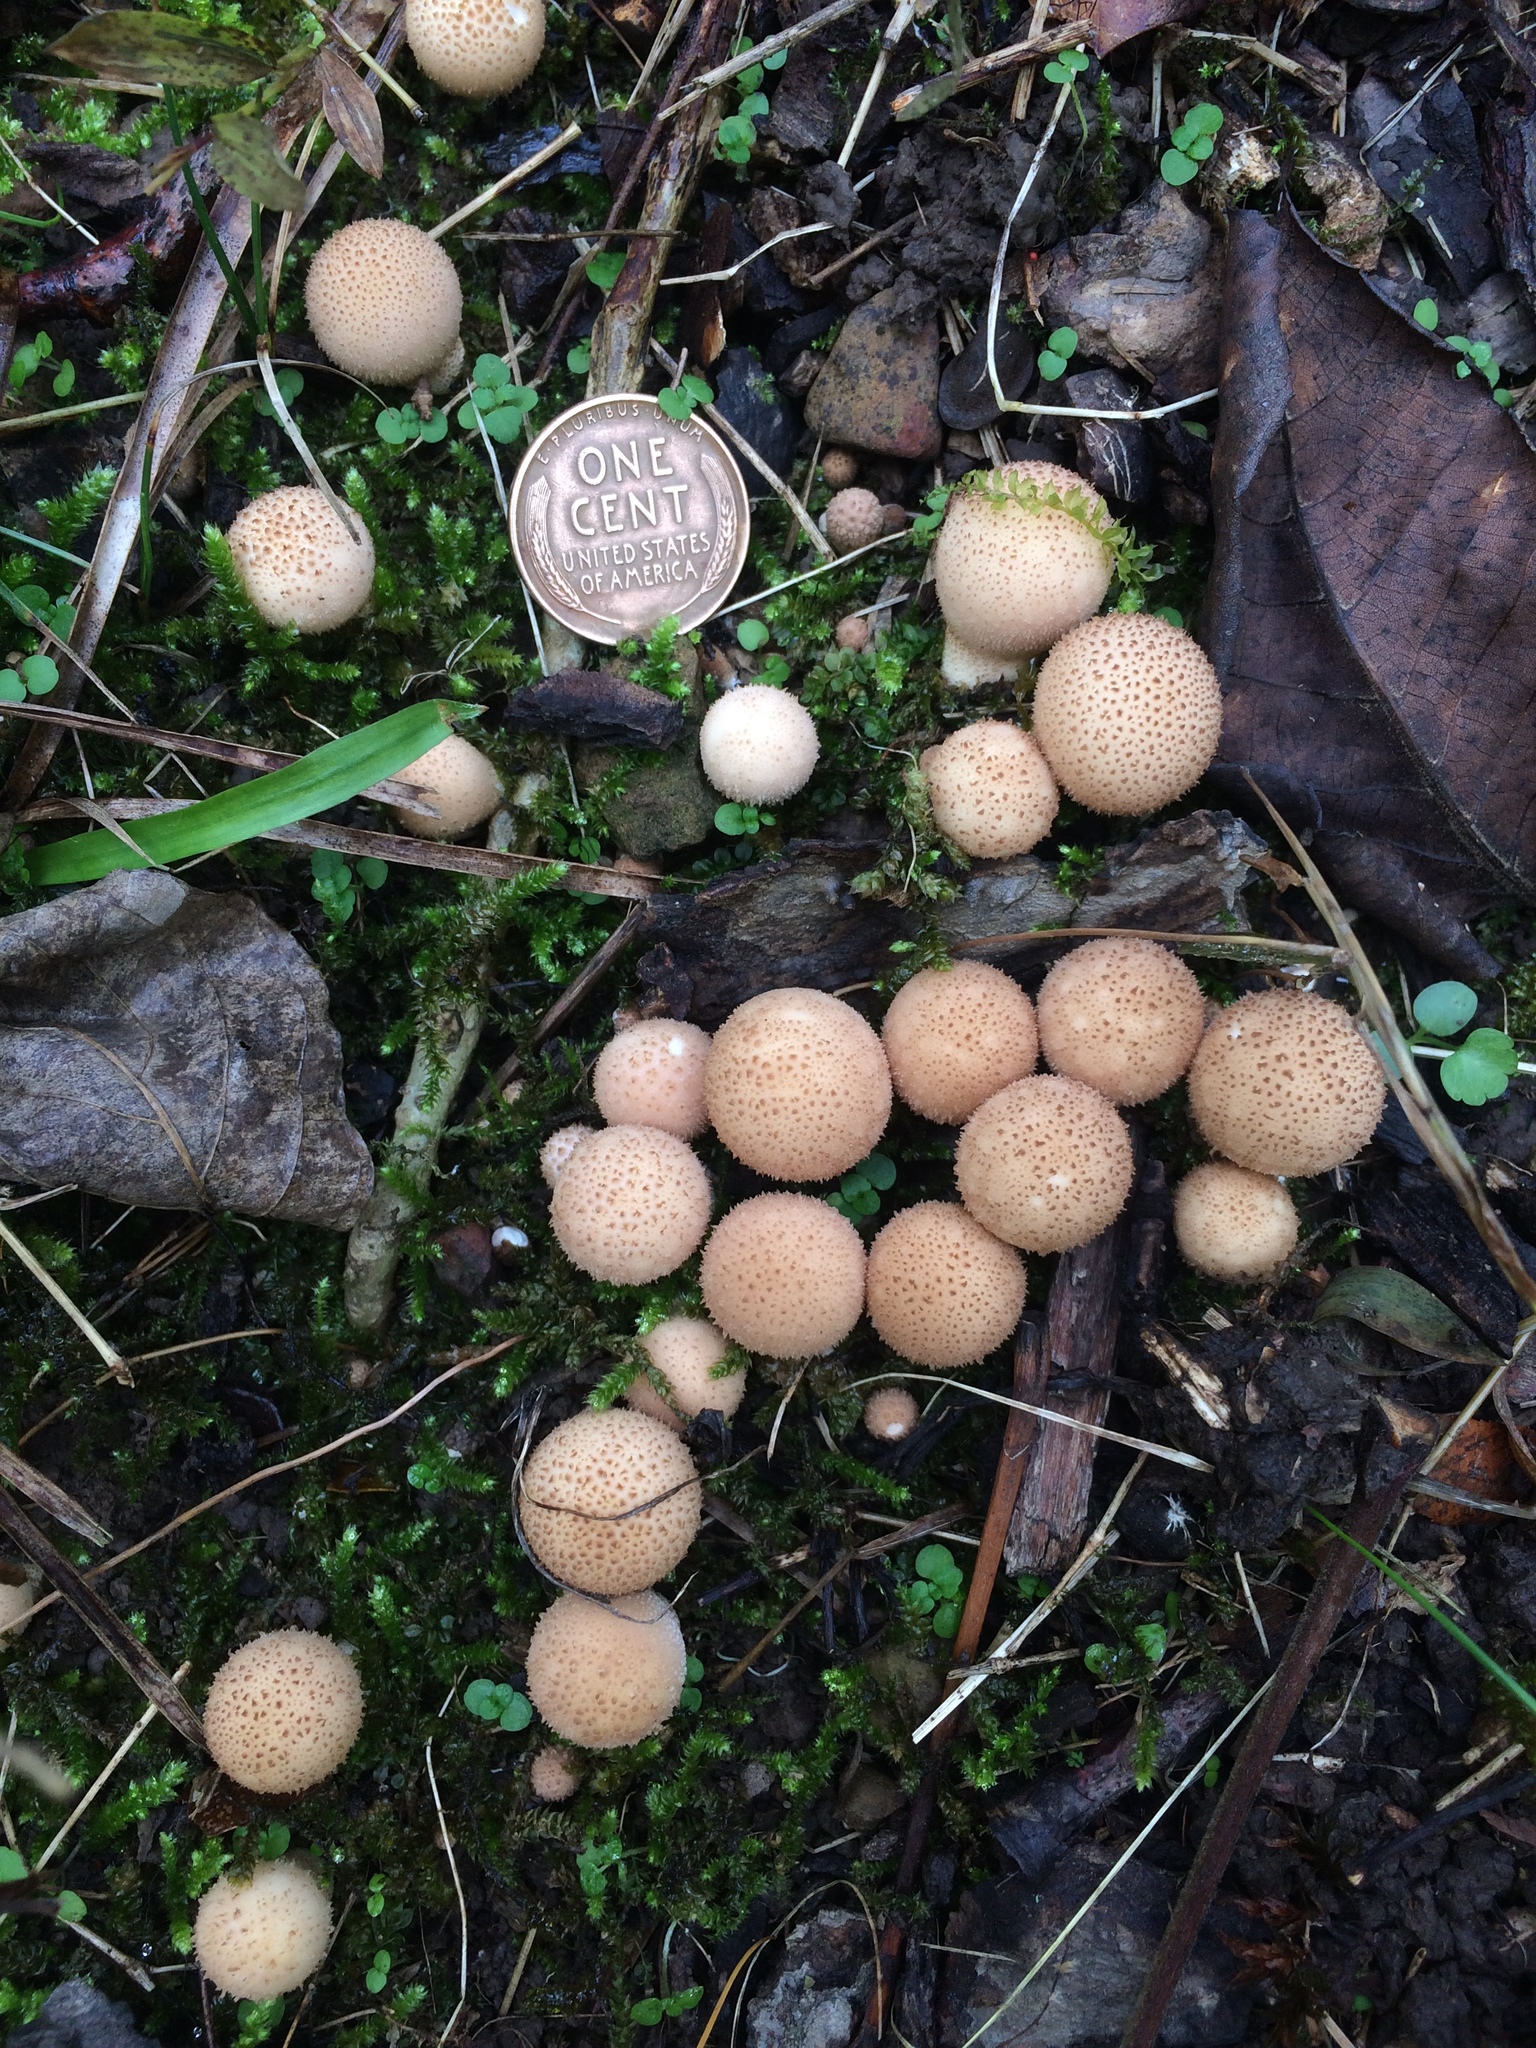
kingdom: Fungi
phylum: Basidiomycota
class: Agaricomycetes
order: Agaricales
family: Lycoperdaceae
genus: Apioperdon
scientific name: Apioperdon pyriforme
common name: Pear-shaped puffball
